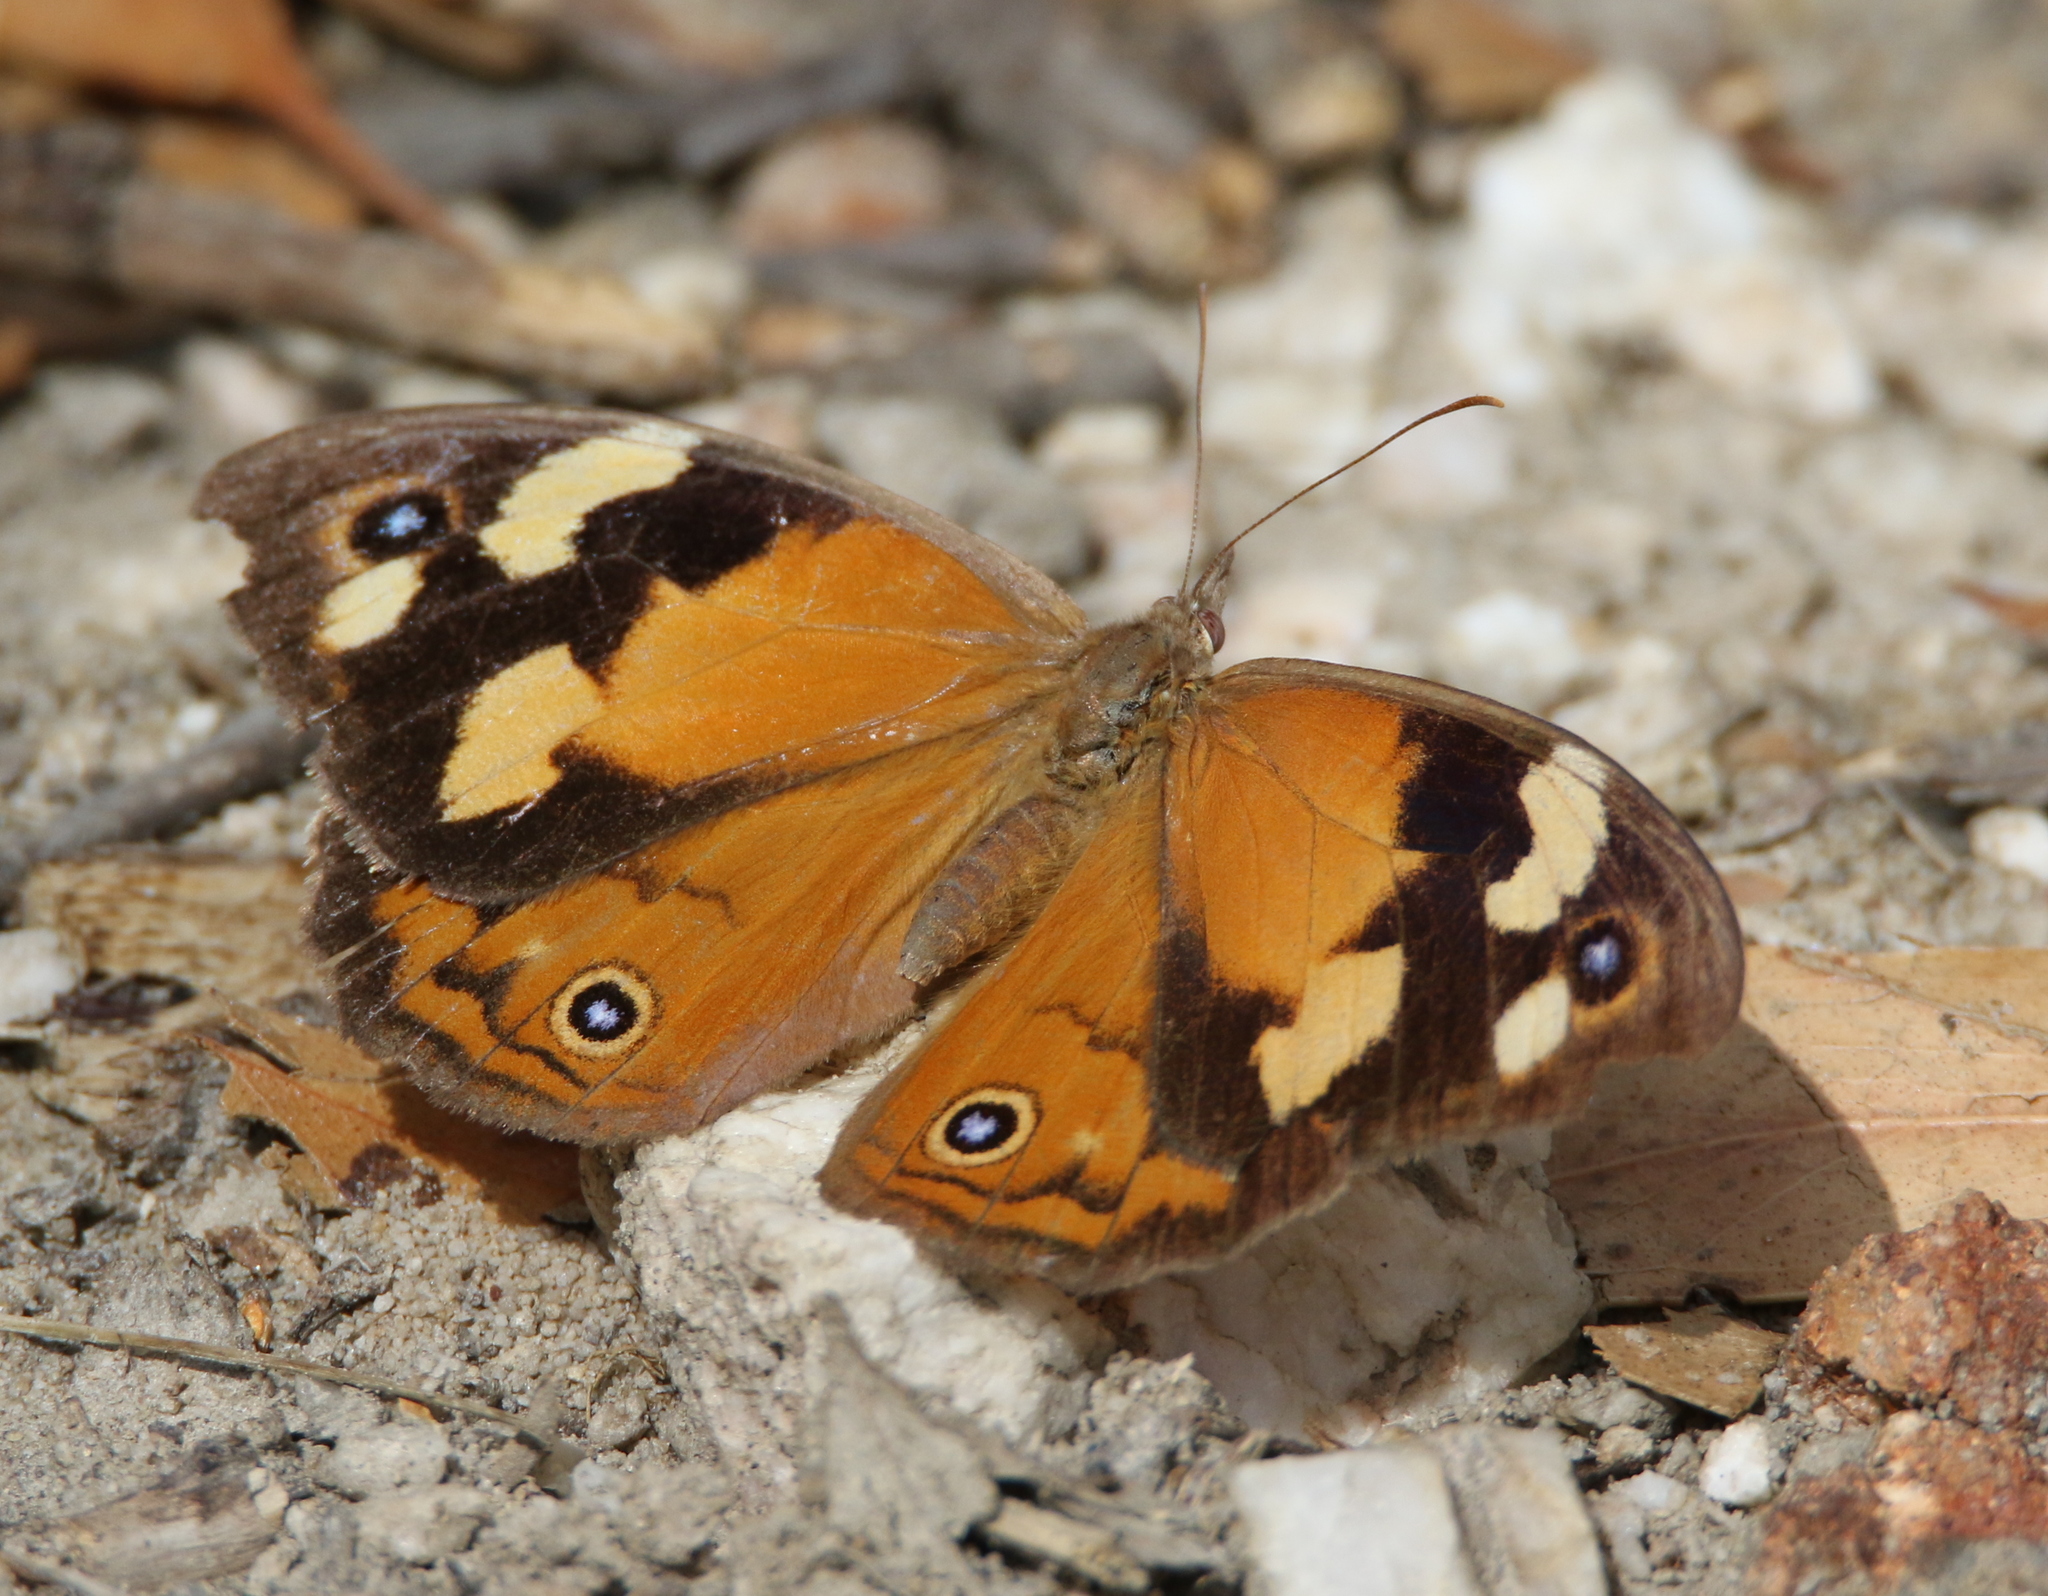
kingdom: Animalia
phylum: Arthropoda
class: Insecta
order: Lepidoptera
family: Nymphalidae
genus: Heteronympha
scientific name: Heteronympha merope
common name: Common brown
